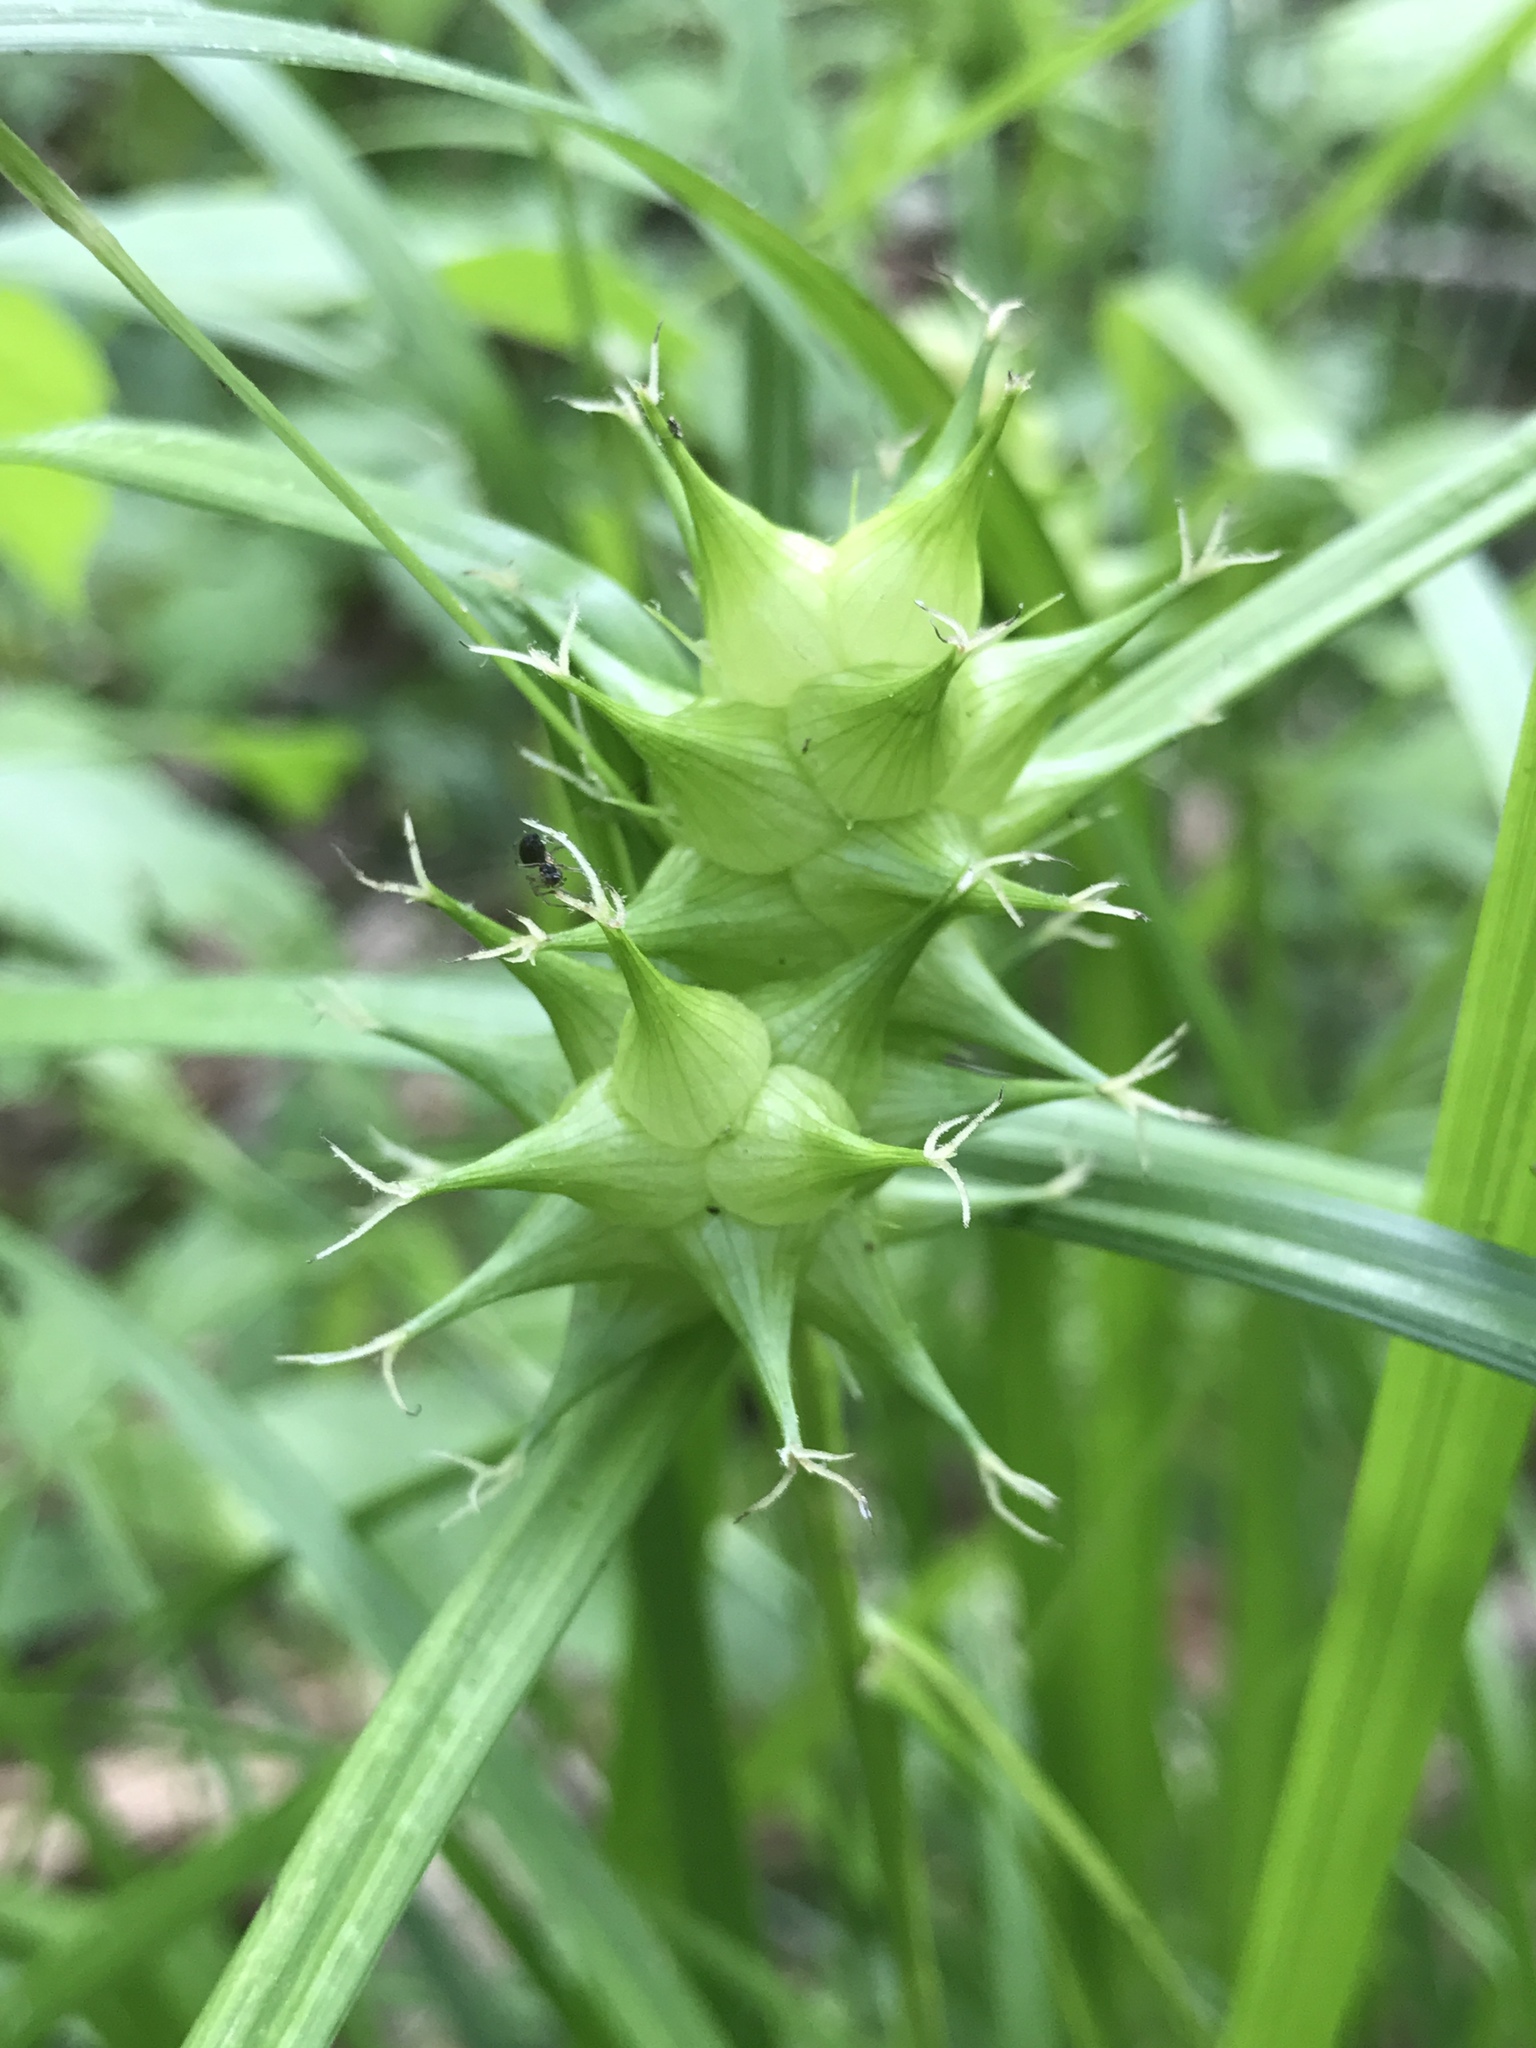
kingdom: Plantae
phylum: Tracheophyta
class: Liliopsida
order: Poales
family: Cyperaceae
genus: Carex
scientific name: Carex intumescens
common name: Greater bladder sedge
